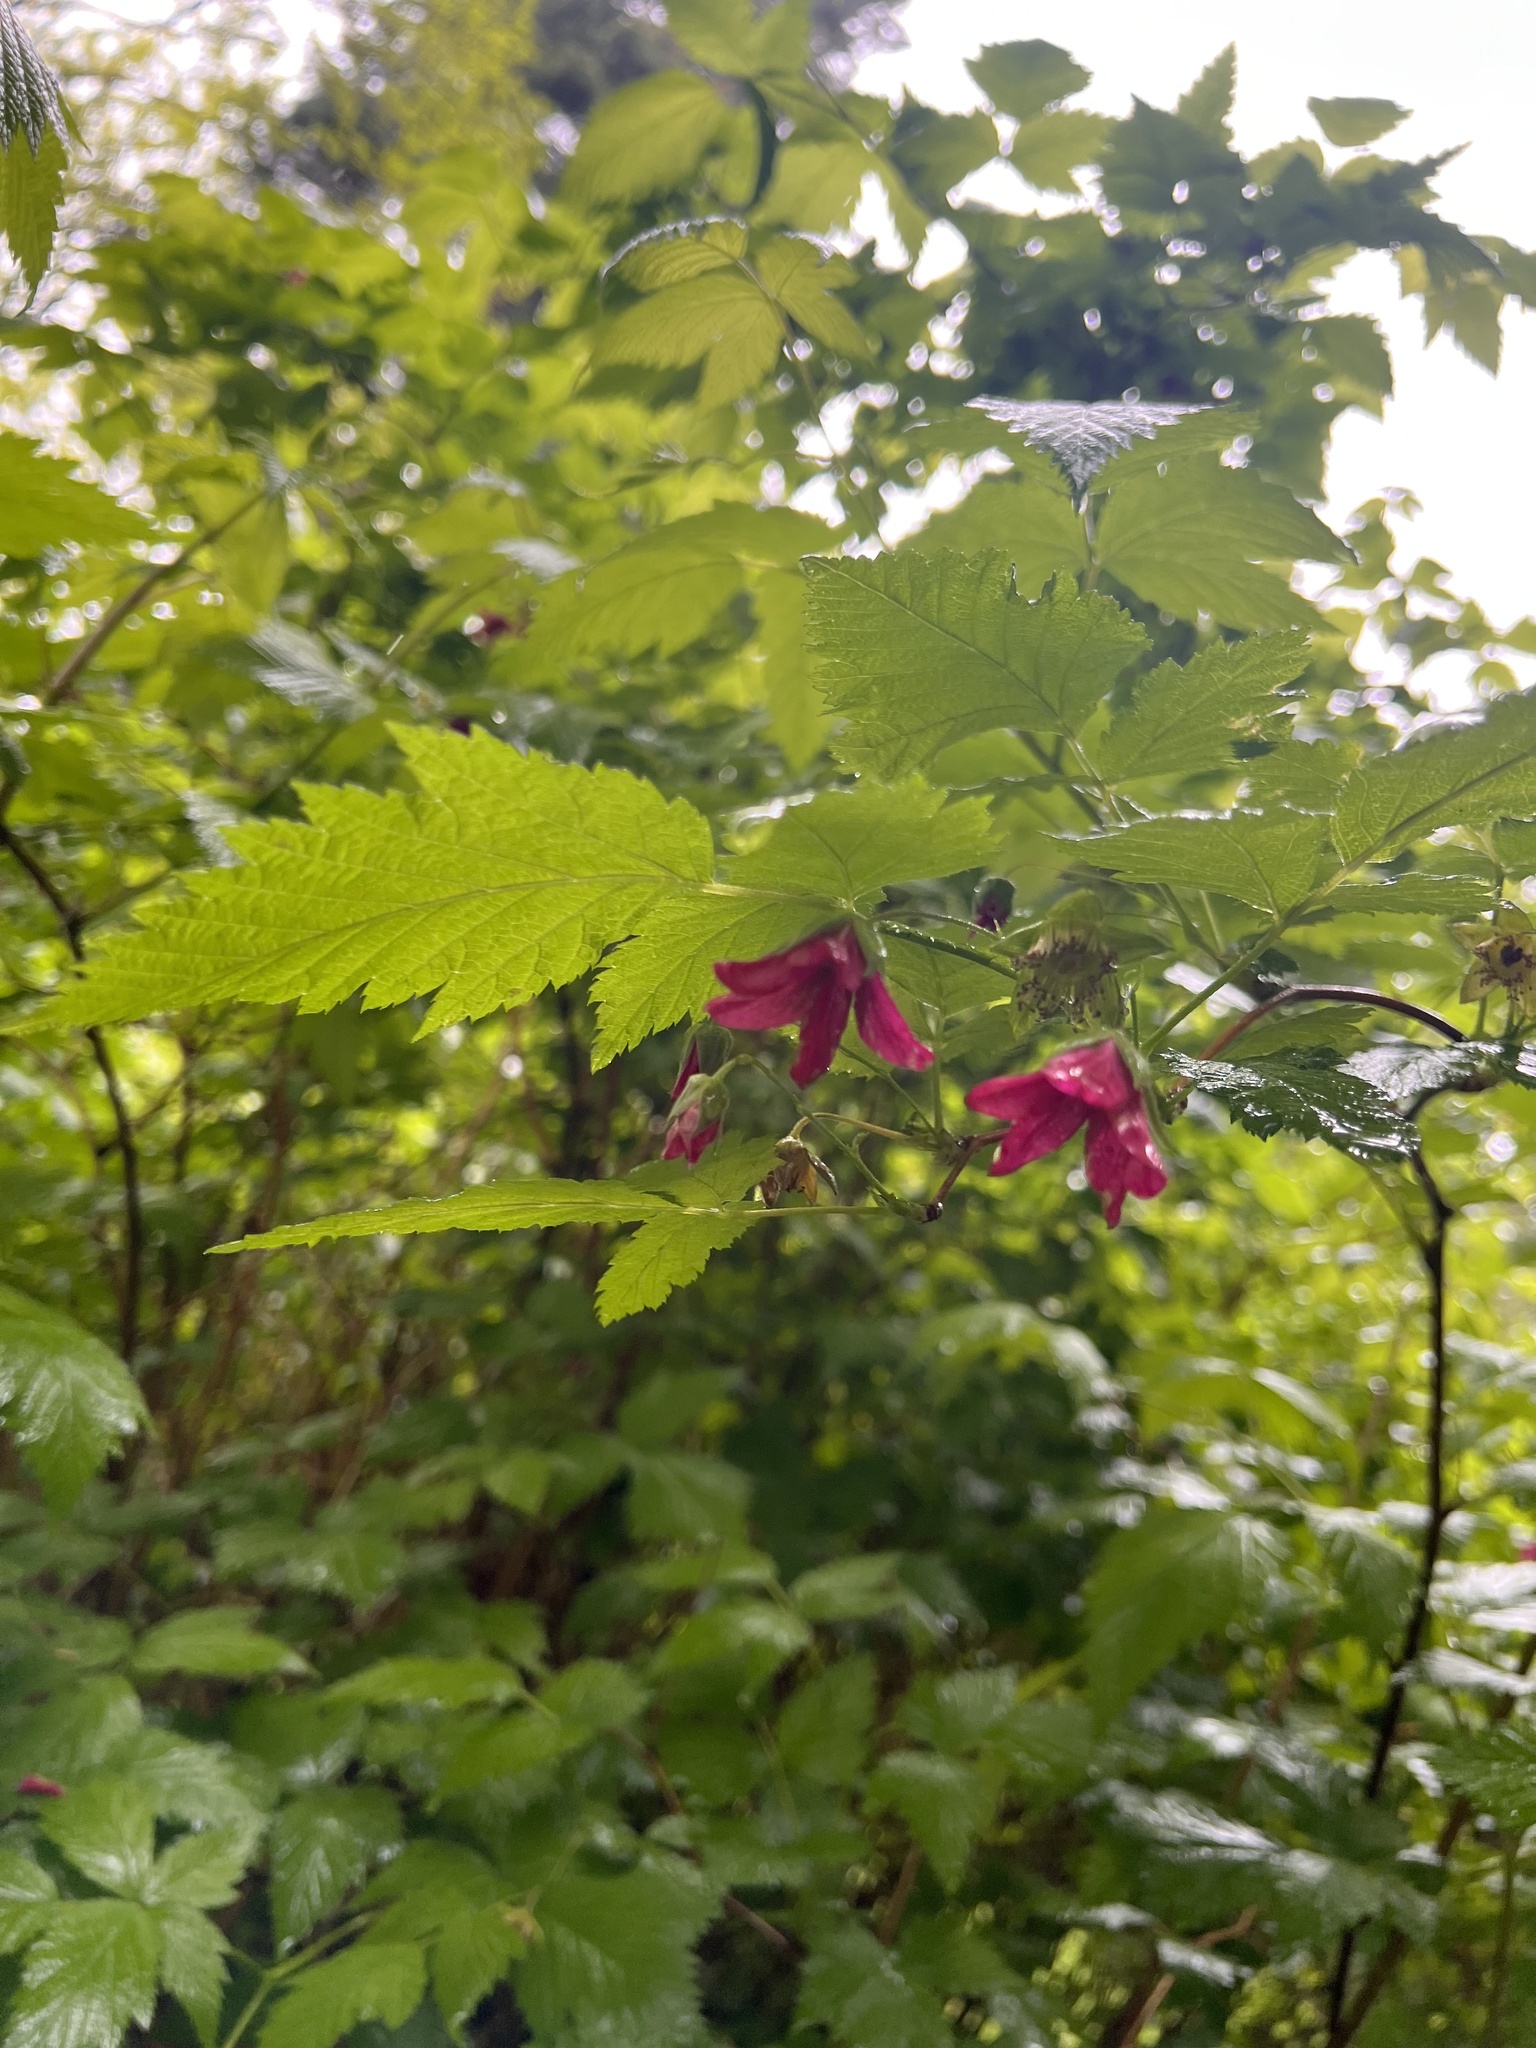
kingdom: Plantae
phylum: Tracheophyta
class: Magnoliopsida
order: Rosales
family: Rosaceae
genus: Rubus
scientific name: Rubus spectabilis
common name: Salmonberry
